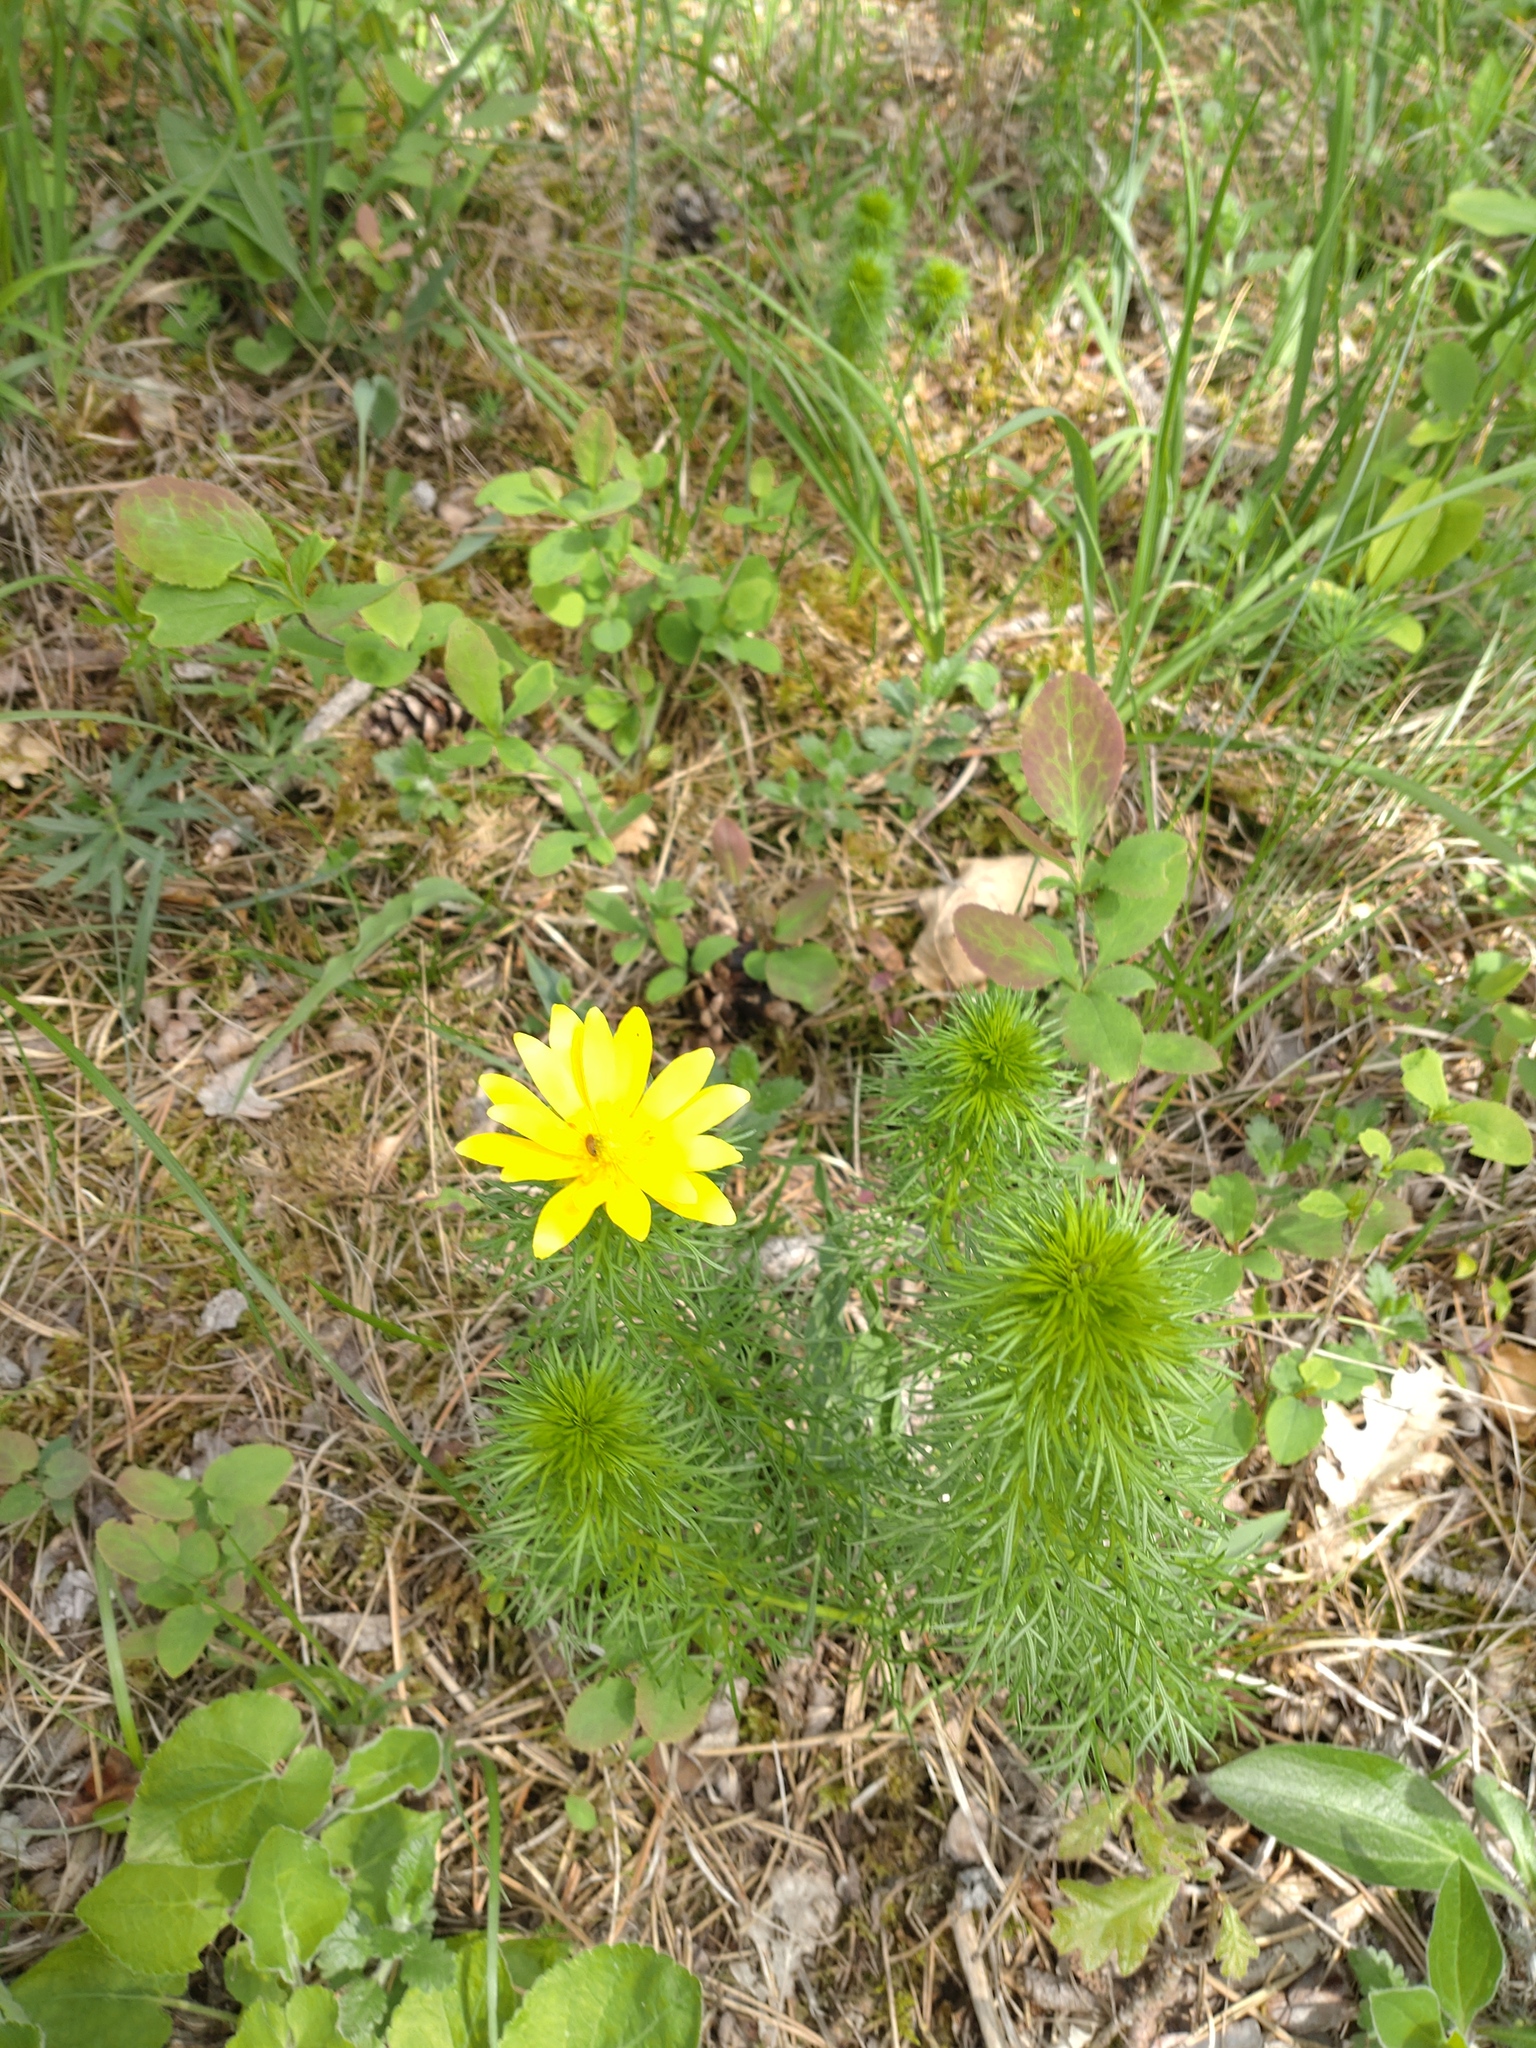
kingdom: Plantae
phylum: Tracheophyta
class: Magnoliopsida
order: Ranunculales
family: Ranunculaceae
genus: Adonis
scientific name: Adonis vernalis
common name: Yellow pheasants-eye
